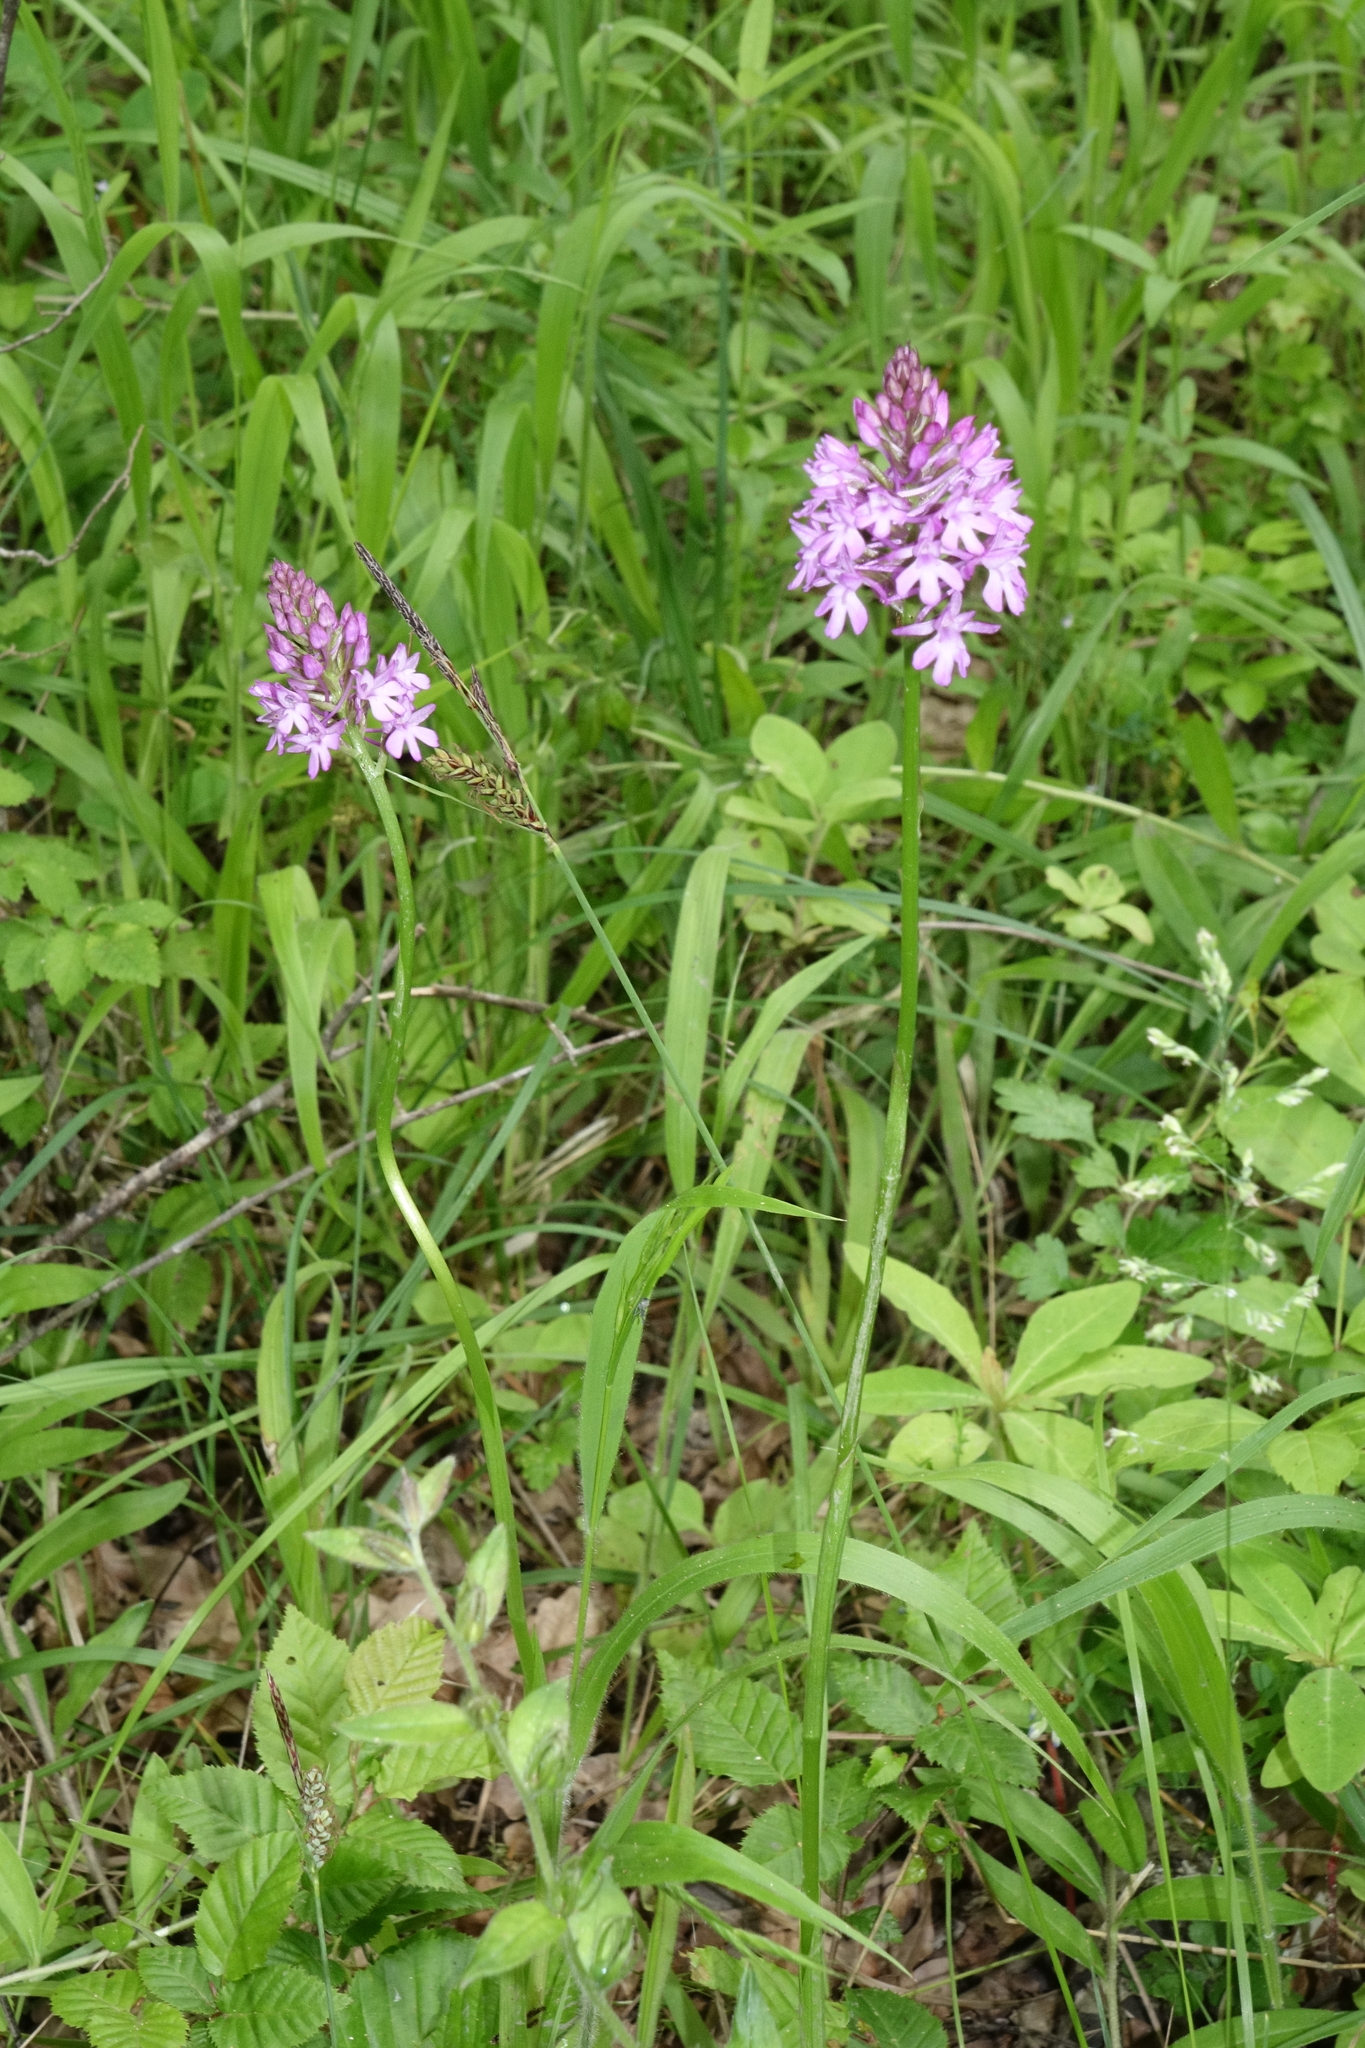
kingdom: Plantae
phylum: Tracheophyta
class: Liliopsida
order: Asparagales
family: Orchidaceae
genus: Anacamptis
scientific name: Anacamptis pyramidalis
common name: Pyramidal orchid
